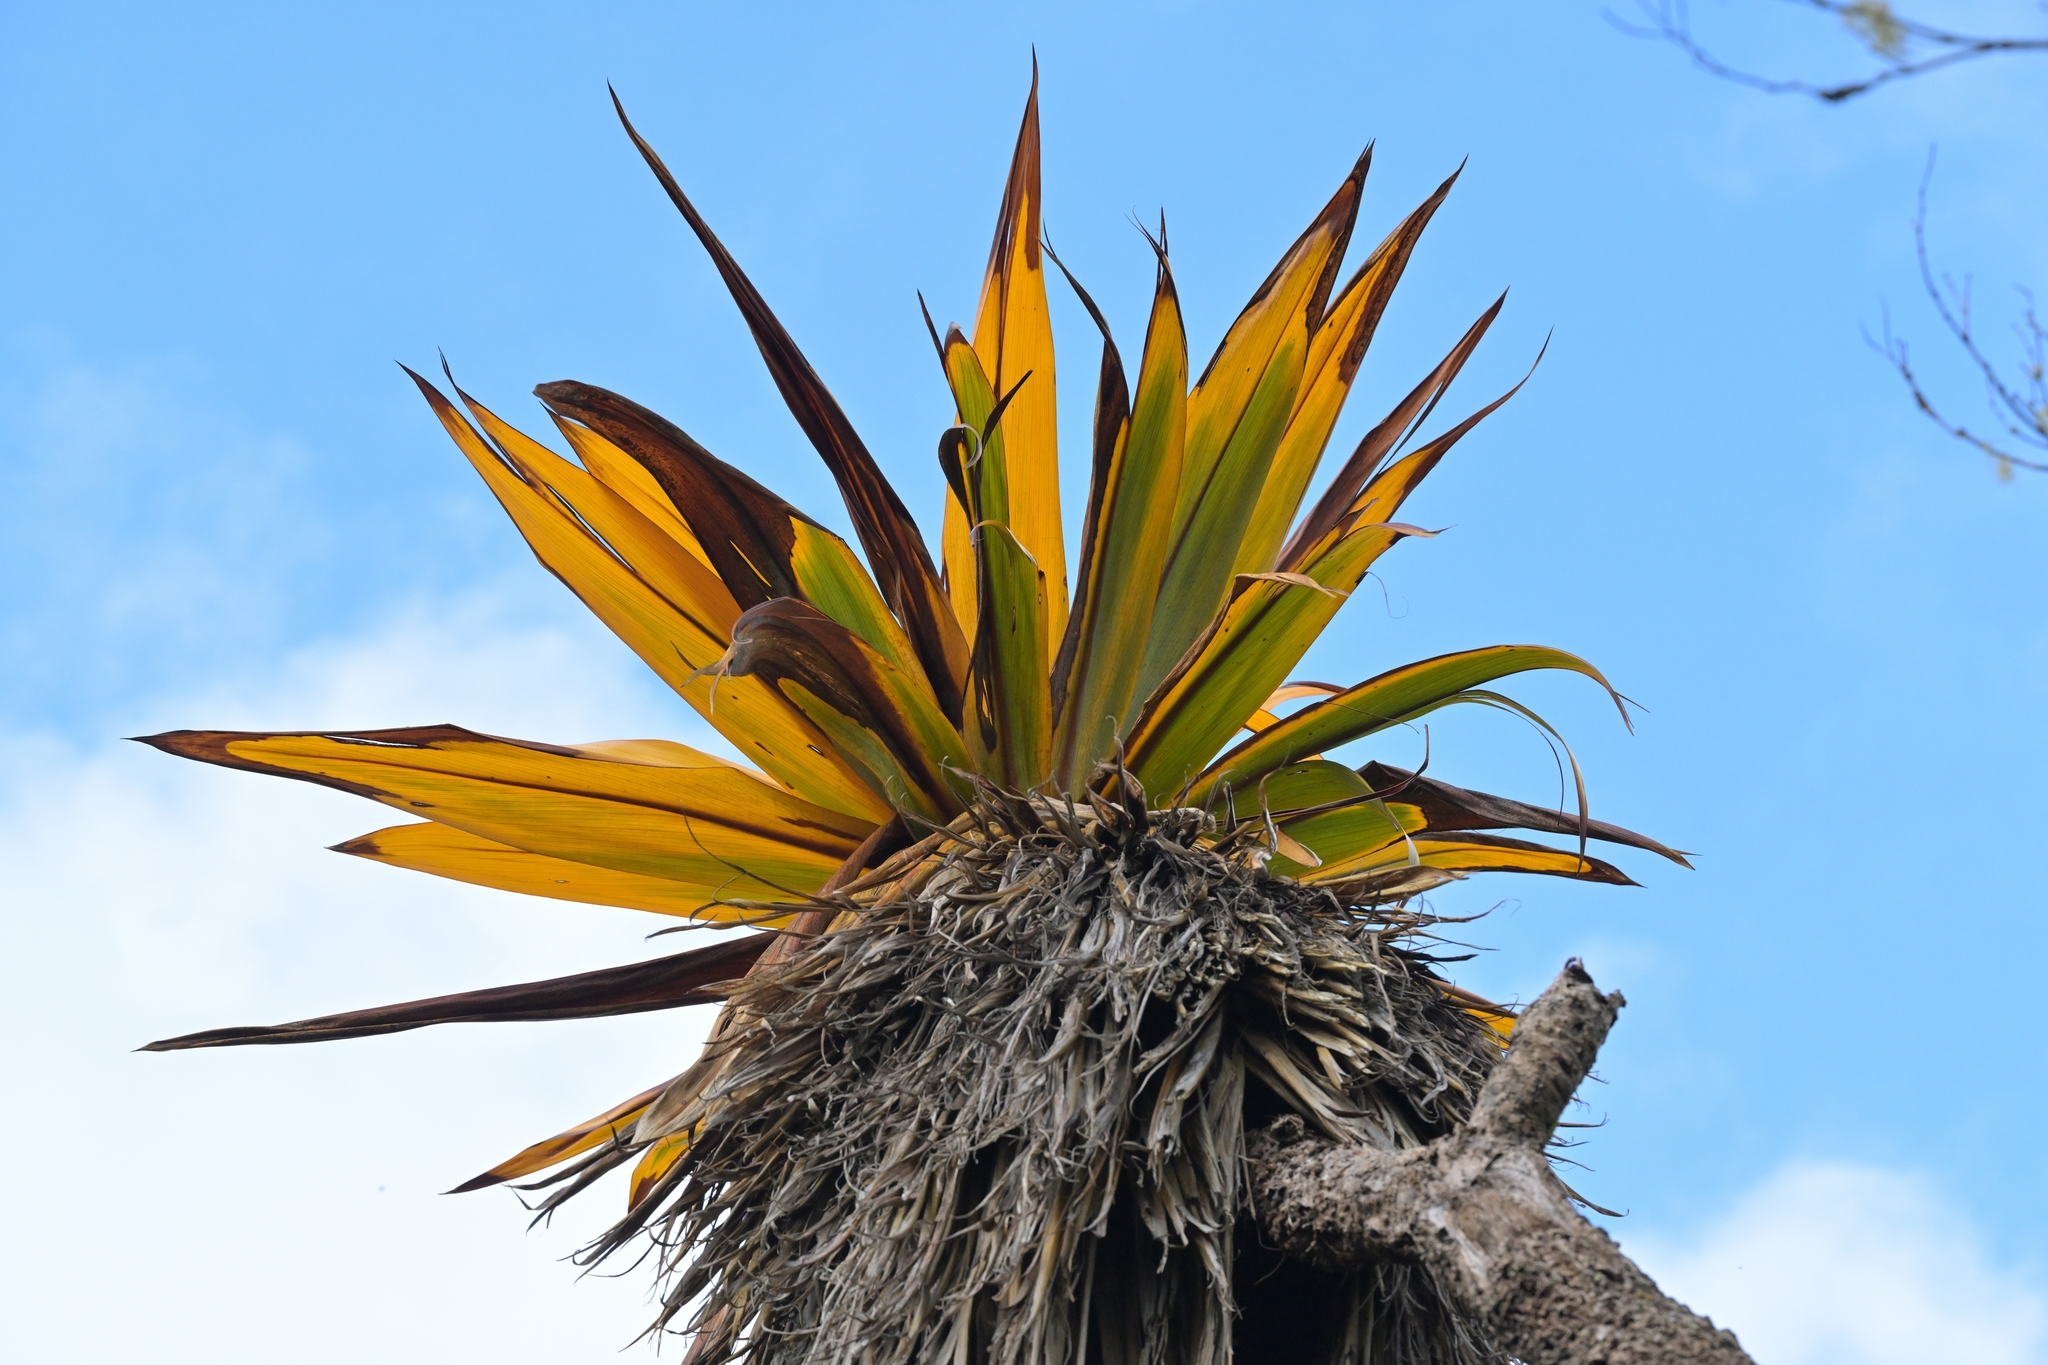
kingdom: Plantae
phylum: Tracheophyta
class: Liliopsida
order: Asparagales
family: Asparagaceae
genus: Cordyline
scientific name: Cordyline indivisa
